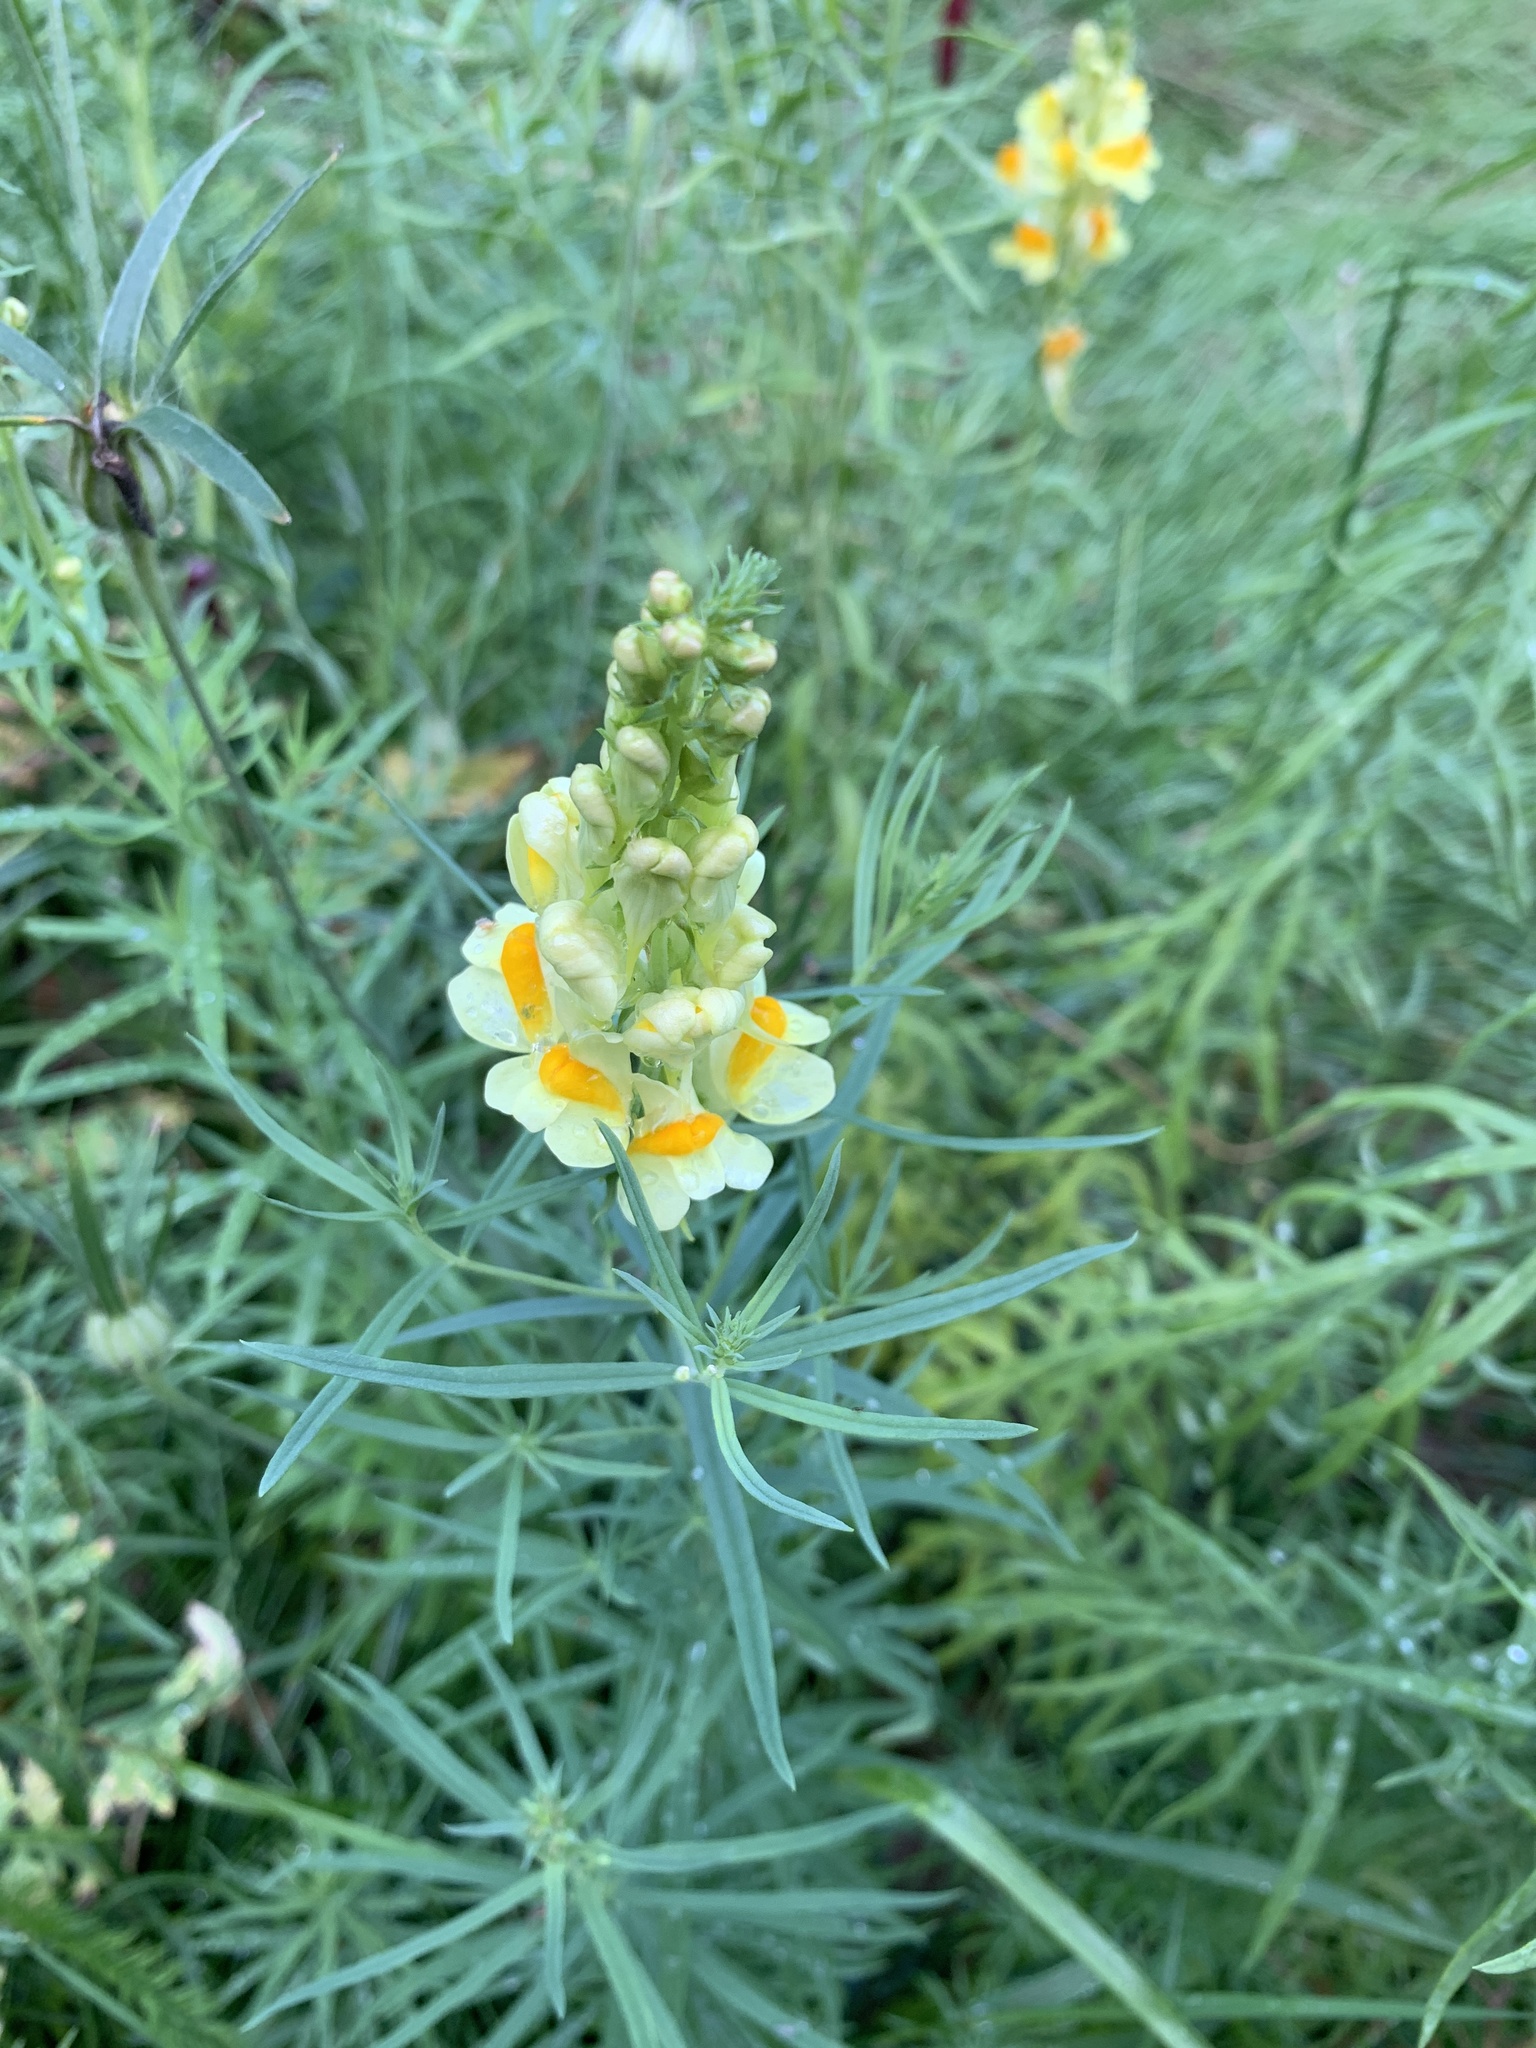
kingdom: Plantae
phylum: Tracheophyta
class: Magnoliopsida
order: Lamiales
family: Plantaginaceae
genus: Linaria
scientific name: Linaria vulgaris
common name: Butter and eggs
